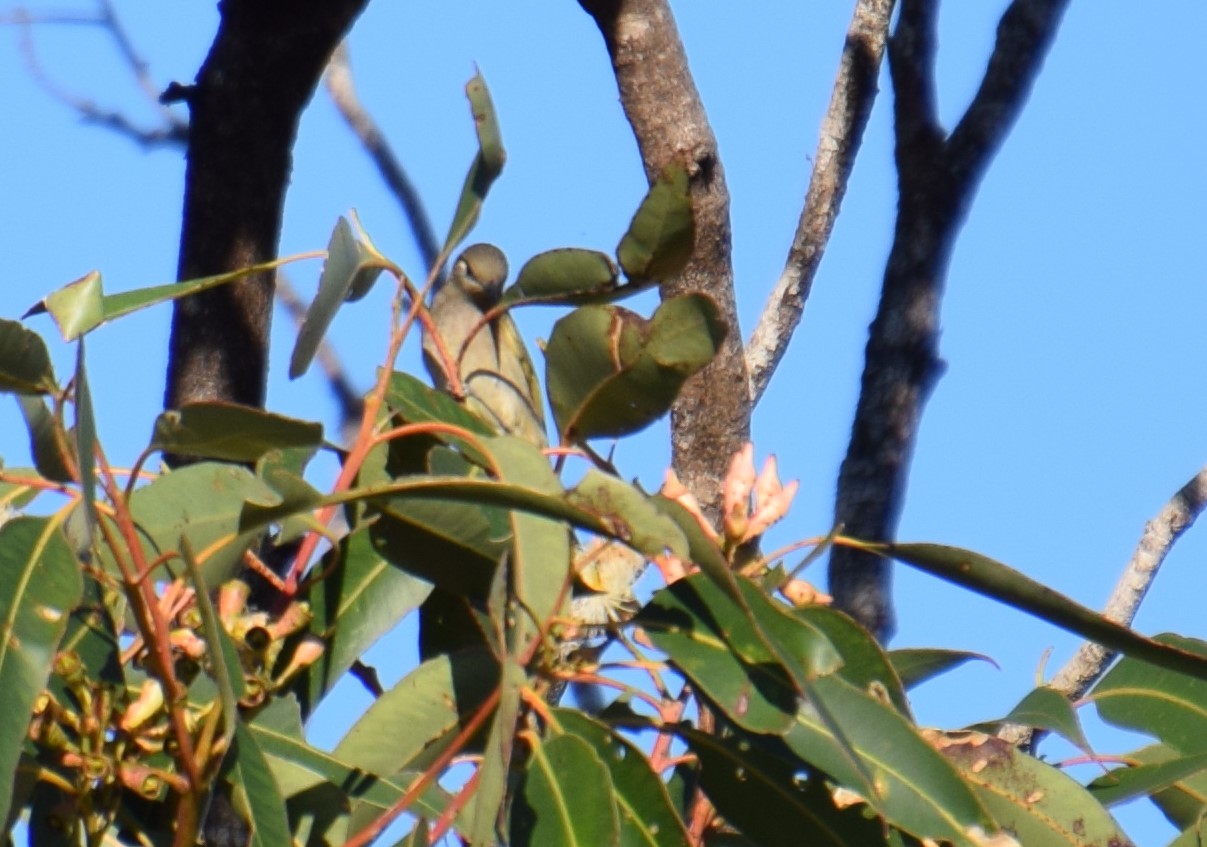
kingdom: Animalia
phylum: Chordata
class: Aves
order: Passeriformes
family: Meliphagidae
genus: Lichmera
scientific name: Lichmera indistincta
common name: Brown honeyeater
